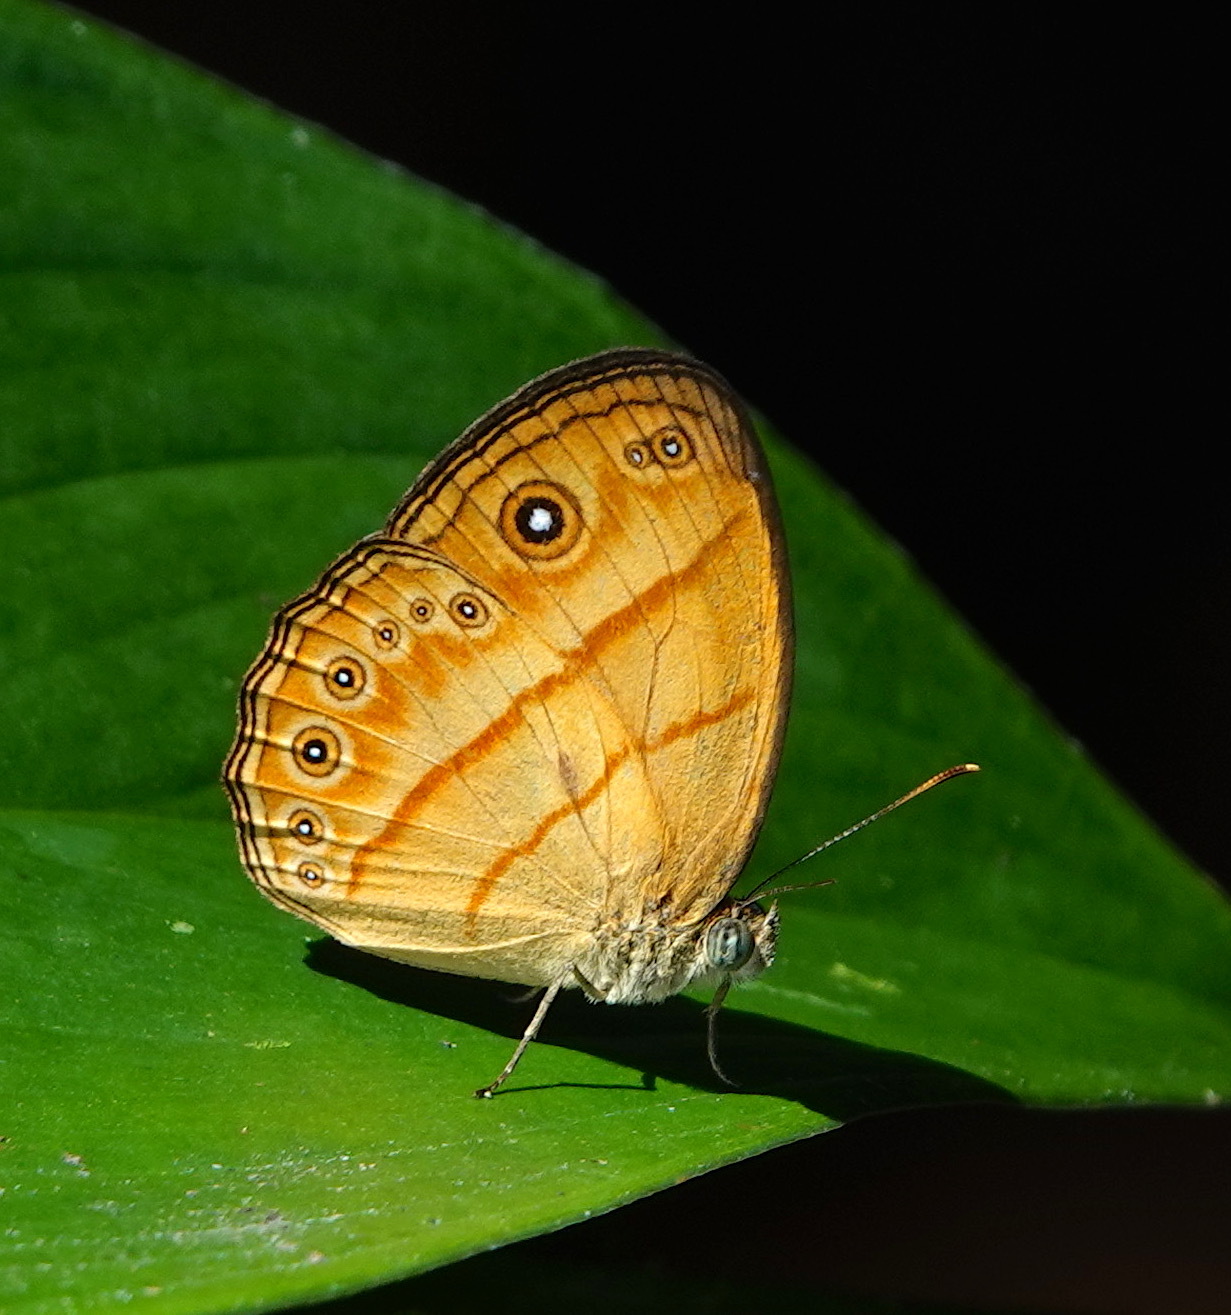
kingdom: Animalia
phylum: Arthropoda
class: Insecta
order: Lepidoptera
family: Nymphalidae
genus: Mycalesis
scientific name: Mycalesis marginata
